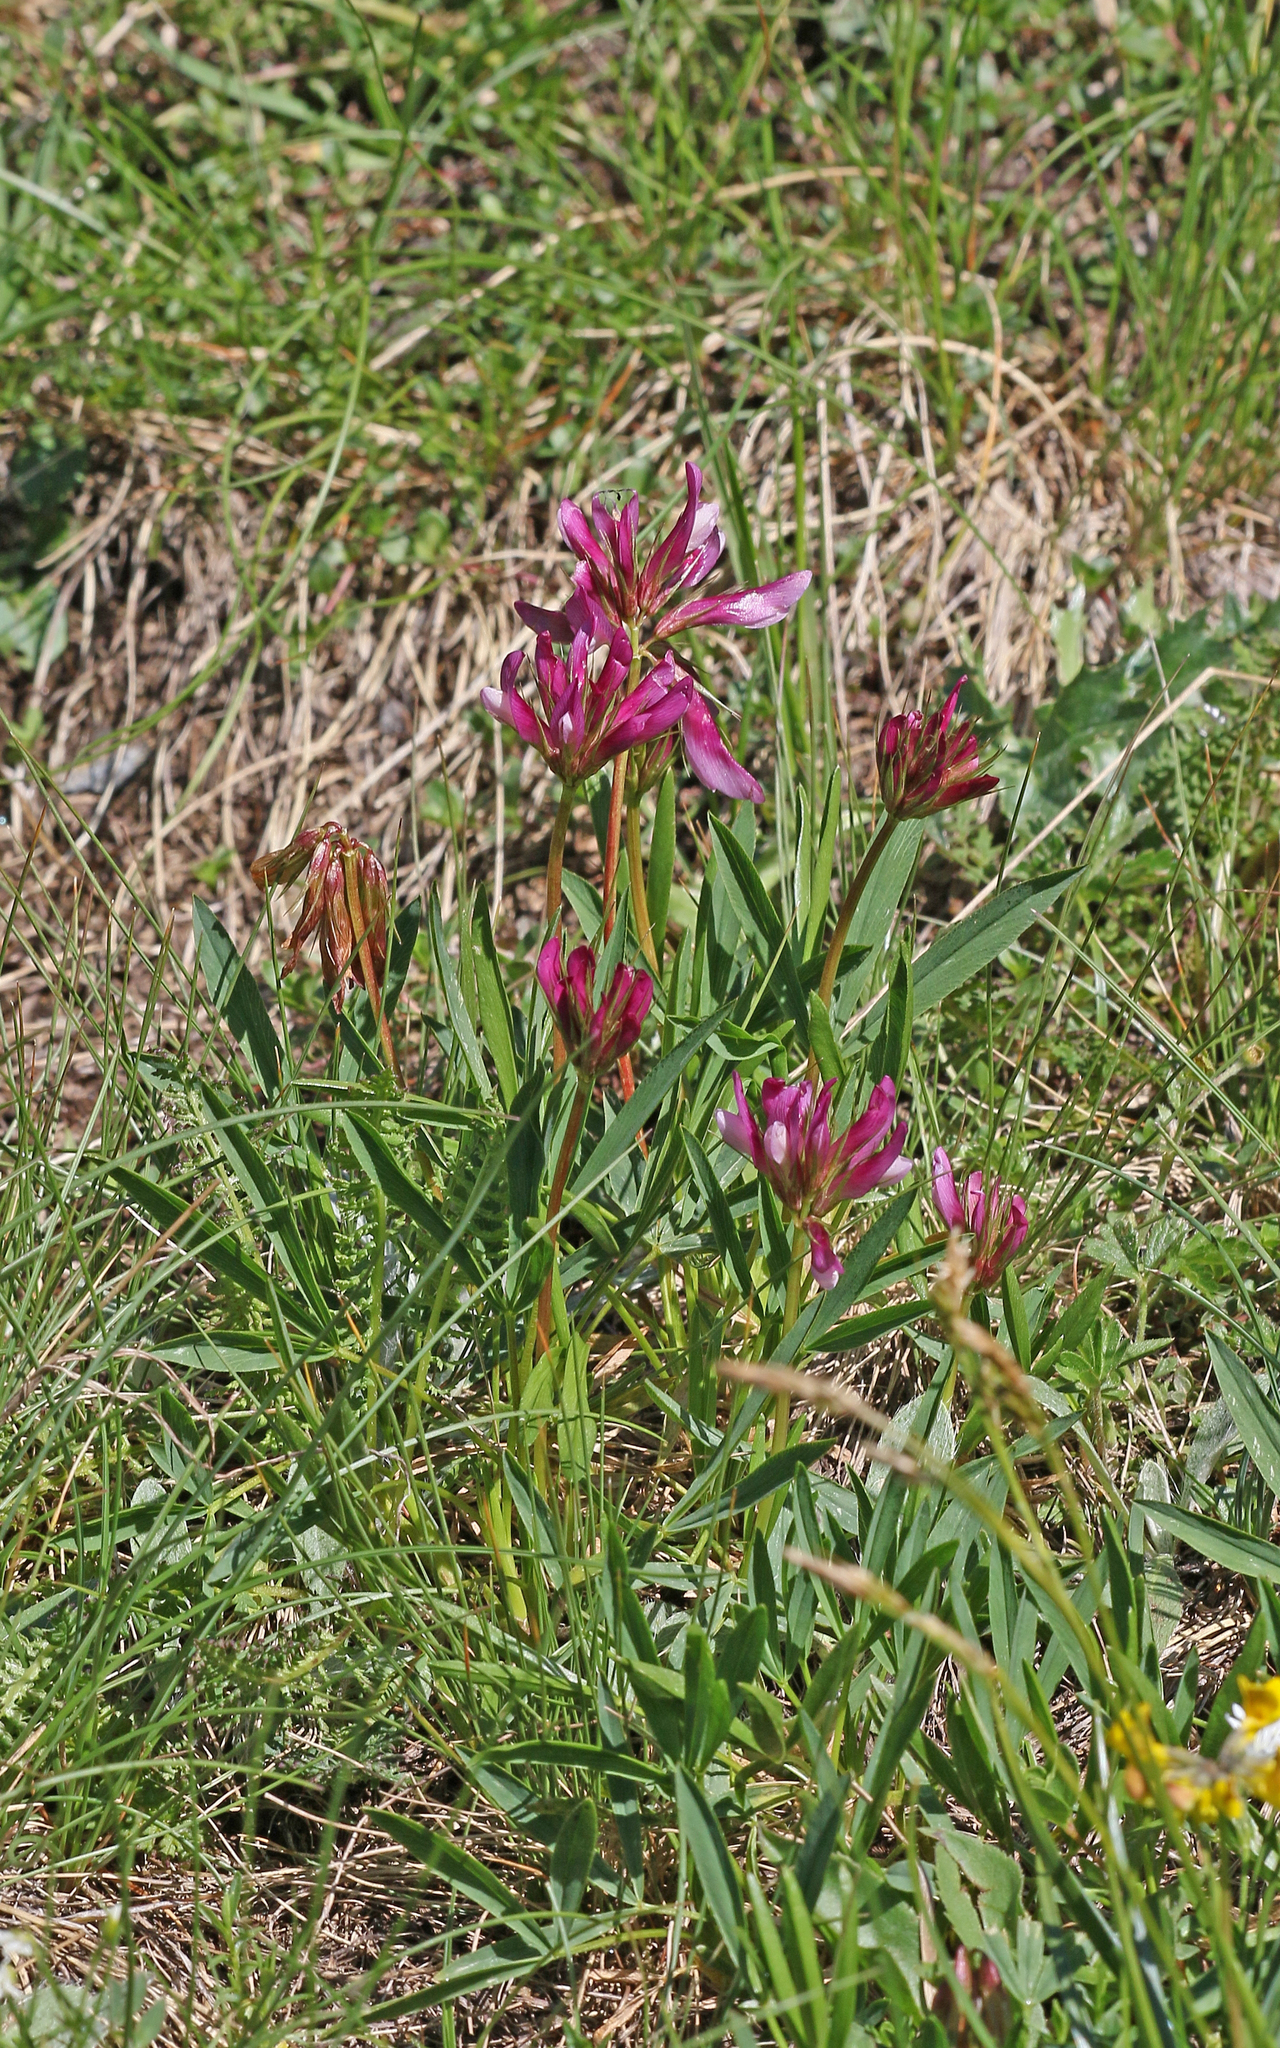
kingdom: Plantae
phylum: Tracheophyta
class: Magnoliopsida
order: Fabales
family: Fabaceae
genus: Trifolium
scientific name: Trifolium alpinum
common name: Alpine clover
